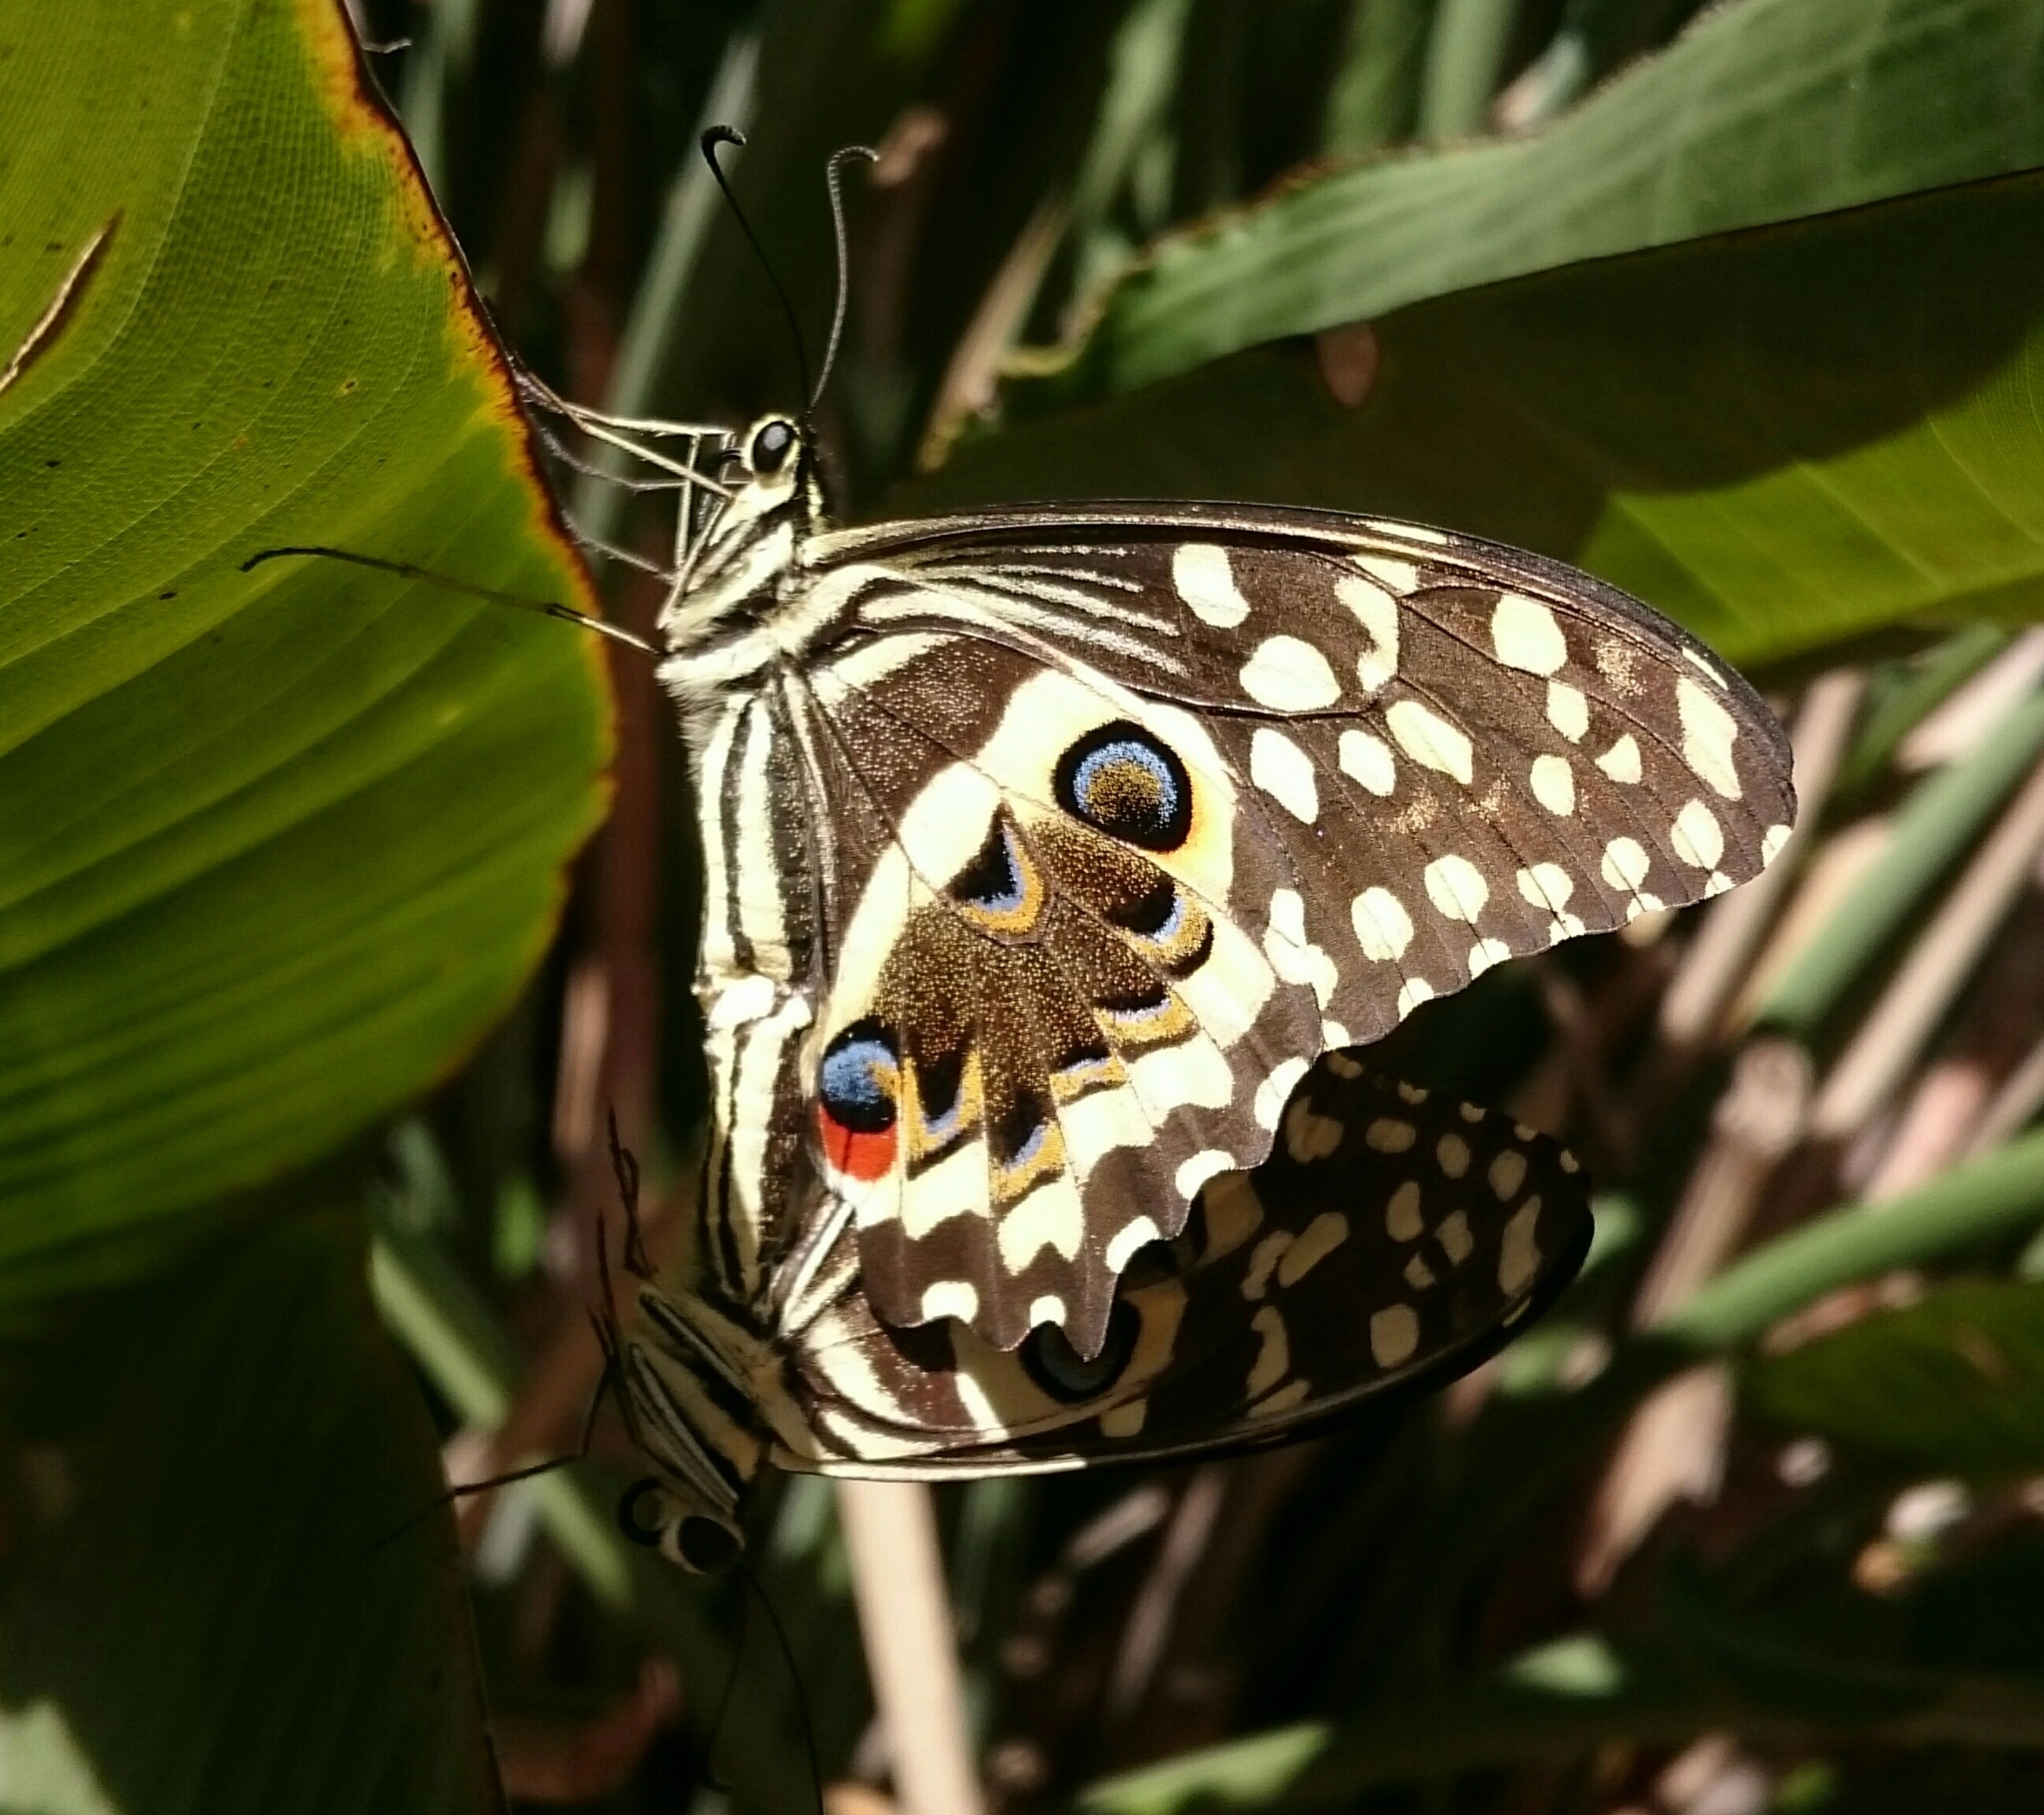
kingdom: Animalia
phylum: Arthropoda
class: Insecta
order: Lepidoptera
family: Papilionidae
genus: Papilio
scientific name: Papilio demodocus
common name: Christmas butterfly
